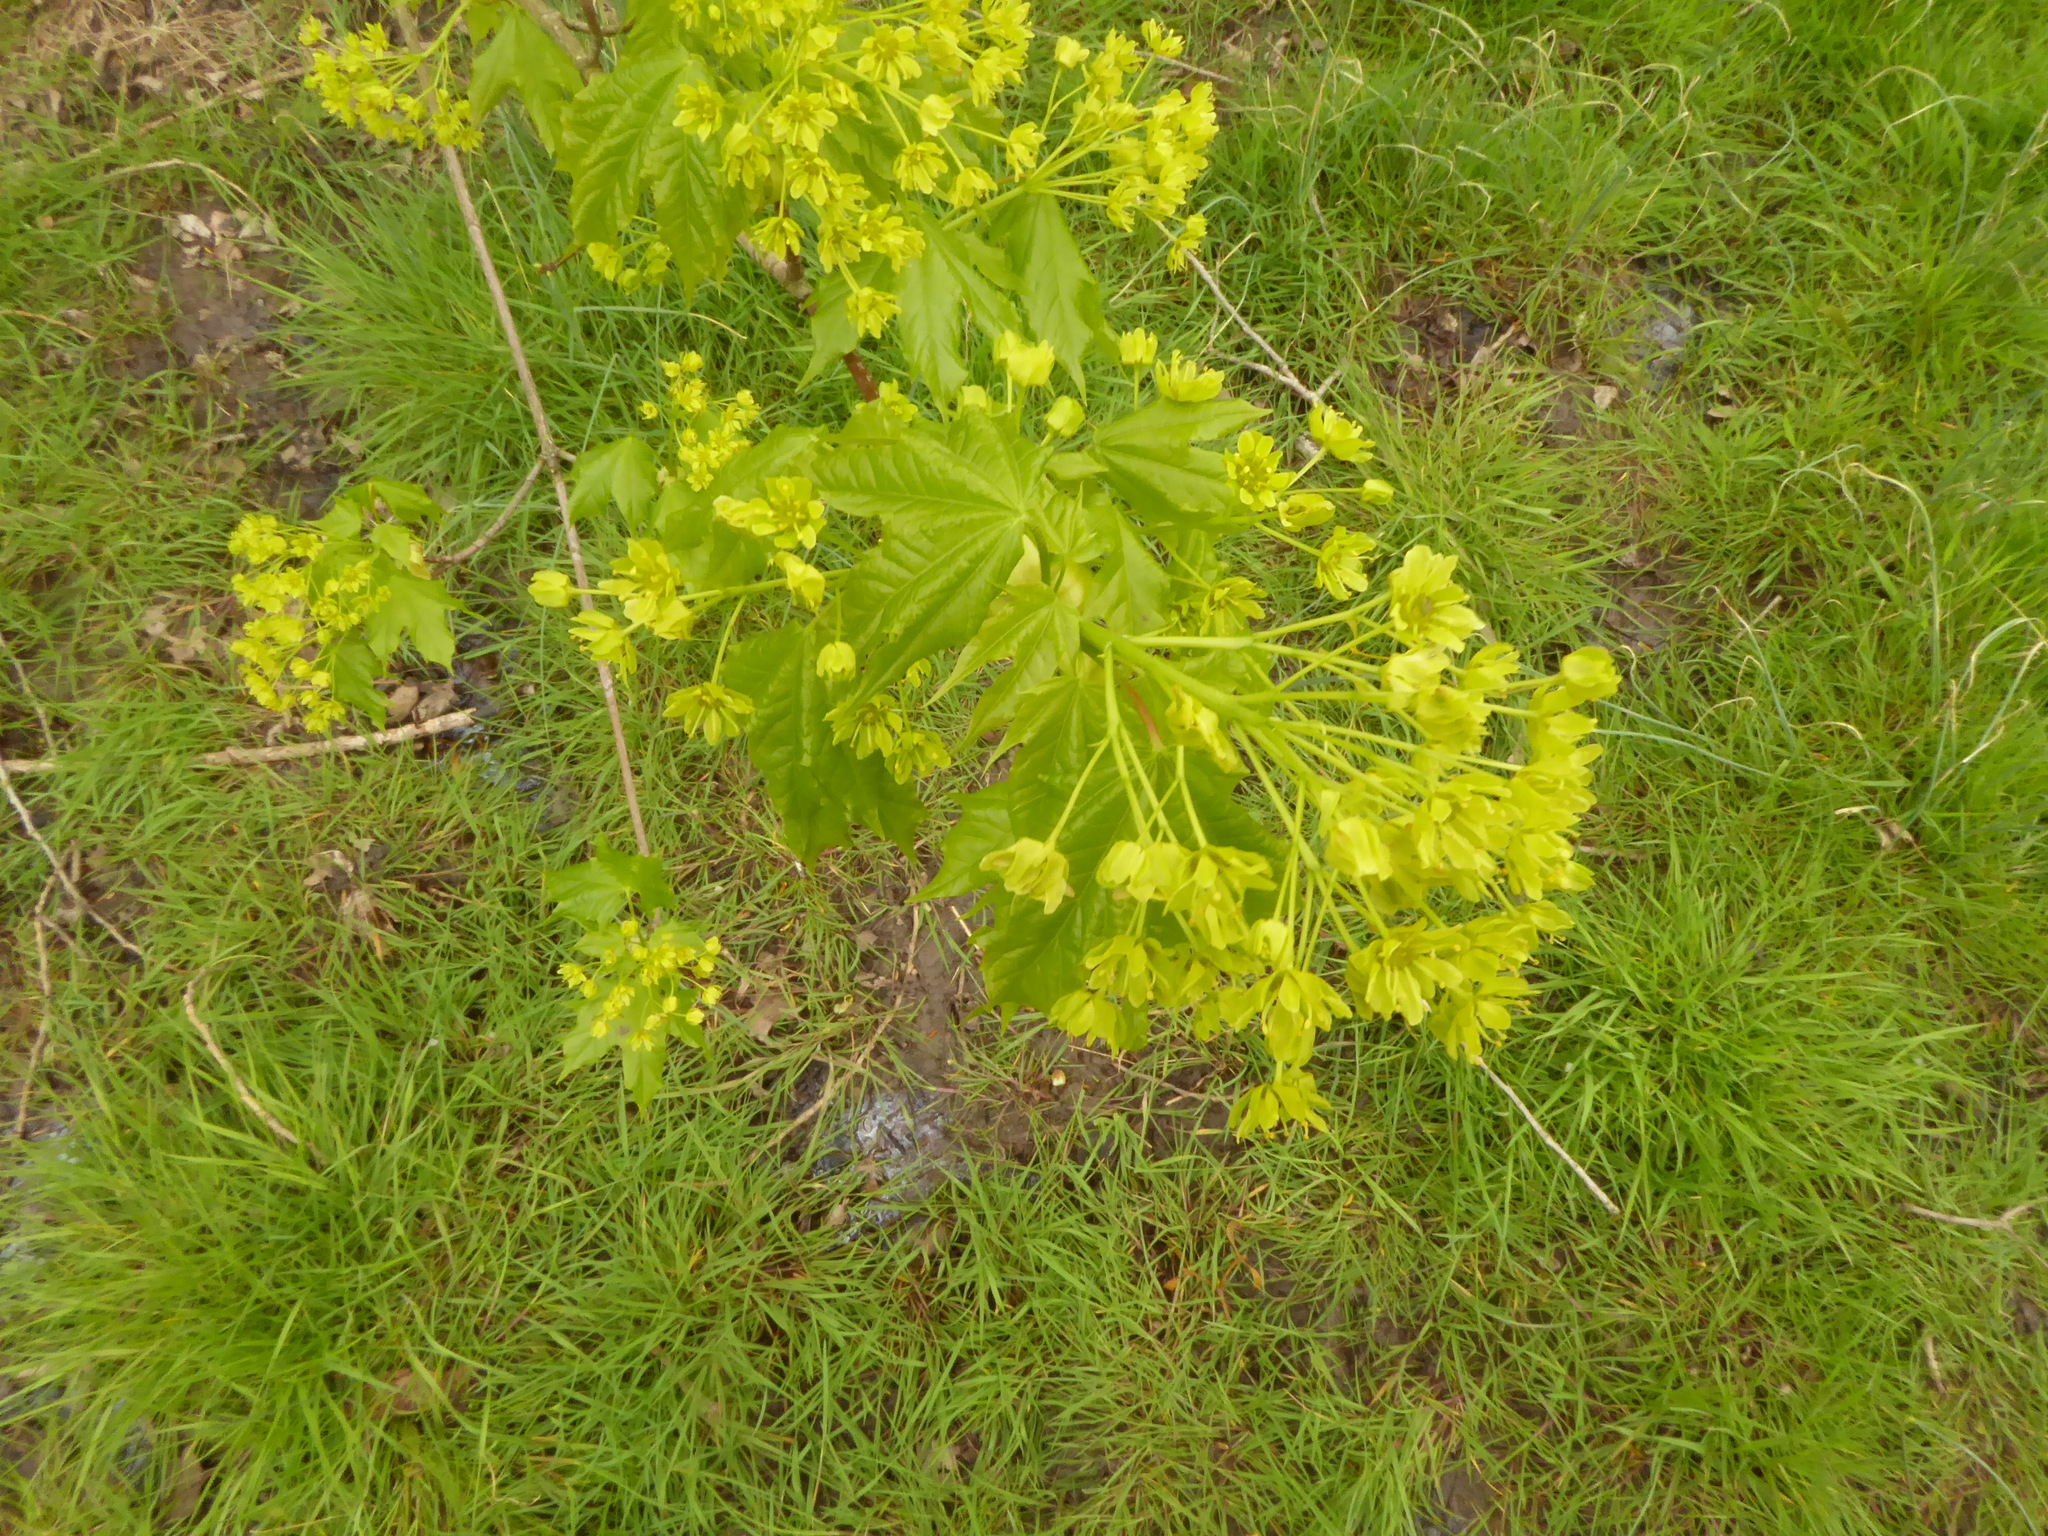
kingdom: Plantae
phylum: Tracheophyta
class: Magnoliopsida
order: Sapindales
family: Sapindaceae
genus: Acer
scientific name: Acer platanoides
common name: Norway maple
